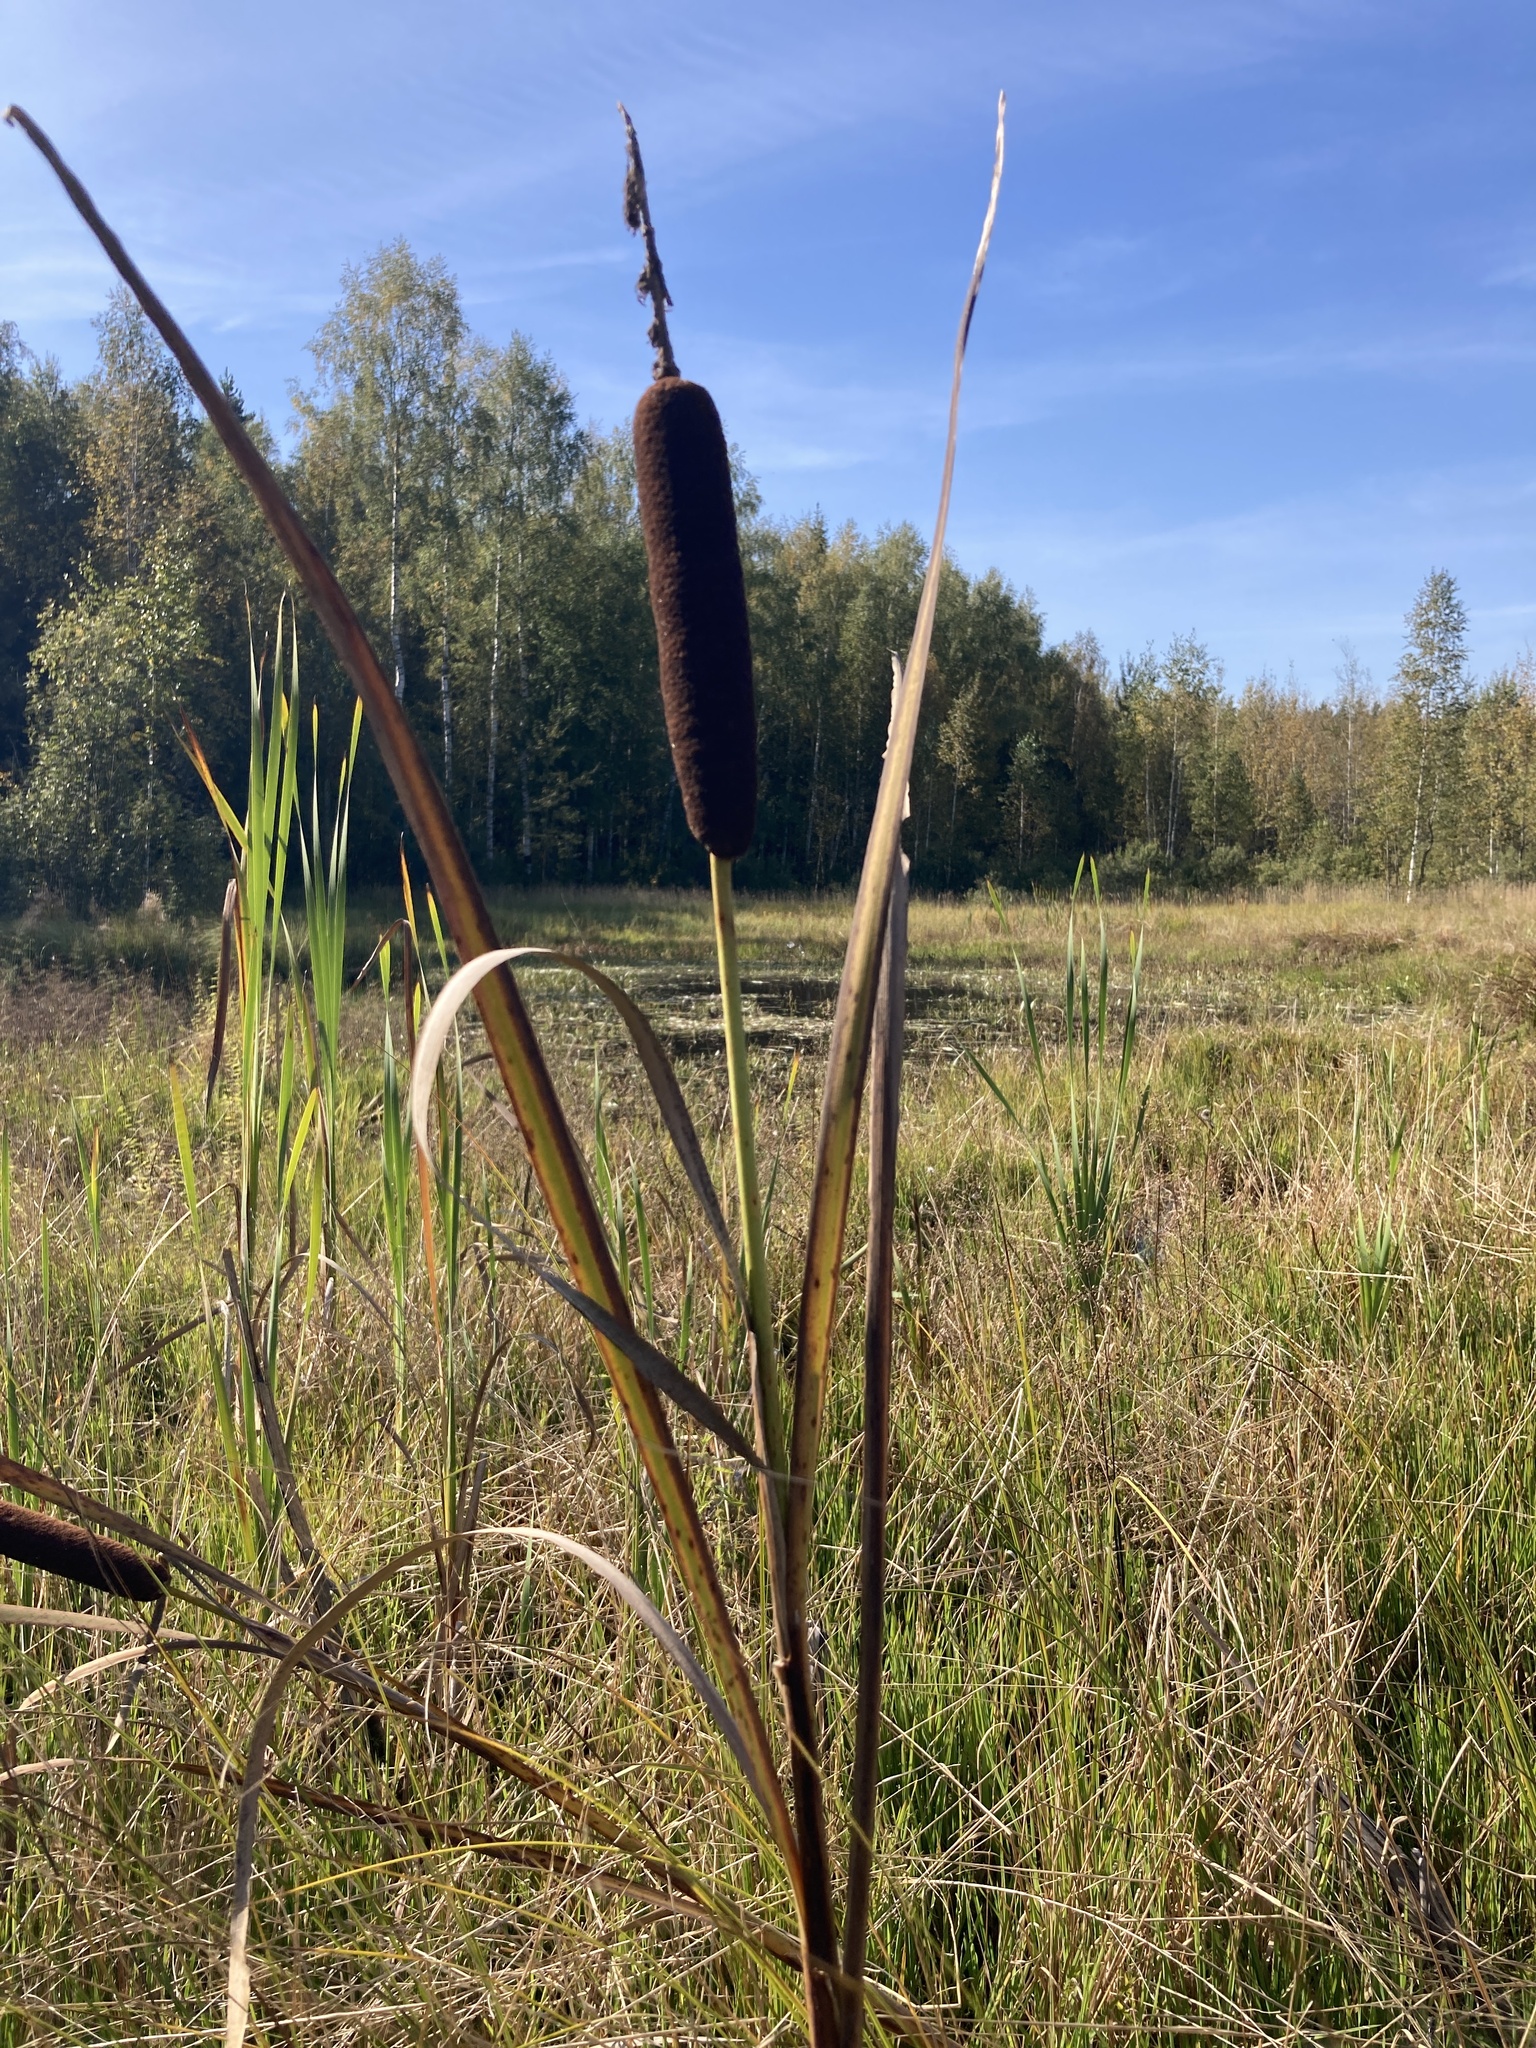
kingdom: Plantae
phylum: Tracheophyta
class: Liliopsida
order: Poales
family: Typhaceae
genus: Typha
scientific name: Typha latifolia
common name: Broadleaf cattail
